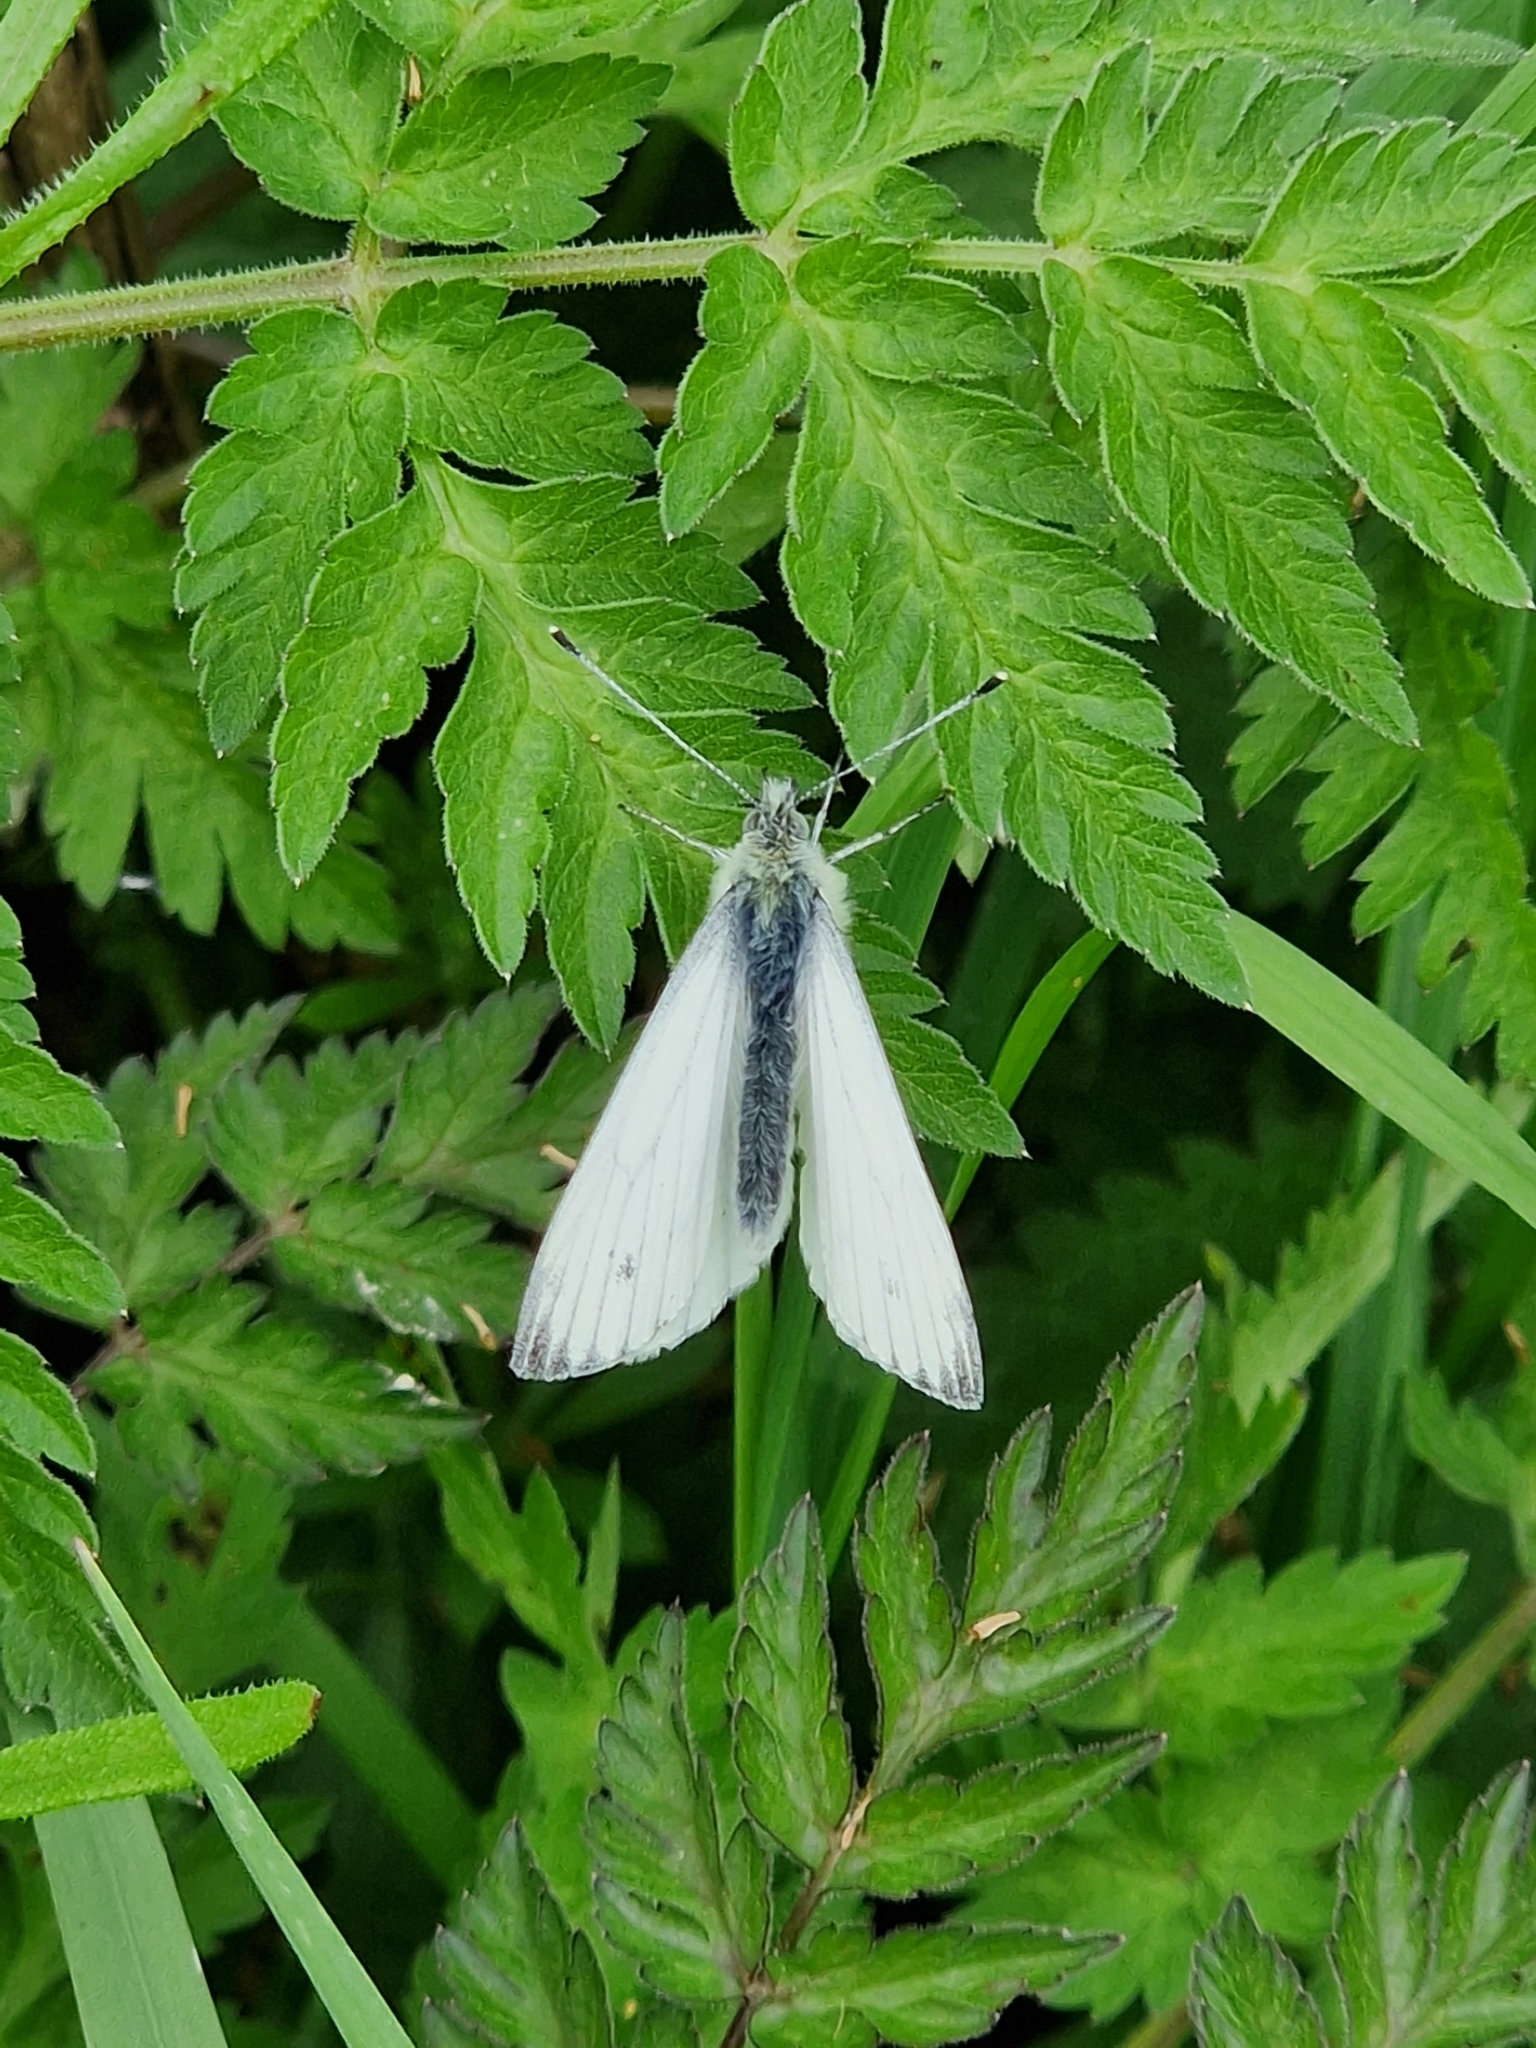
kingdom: Animalia
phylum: Arthropoda
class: Insecta
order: Lepidoptera
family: Pieridae
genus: Pieris
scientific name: Pieris napi
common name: Green-veined white
